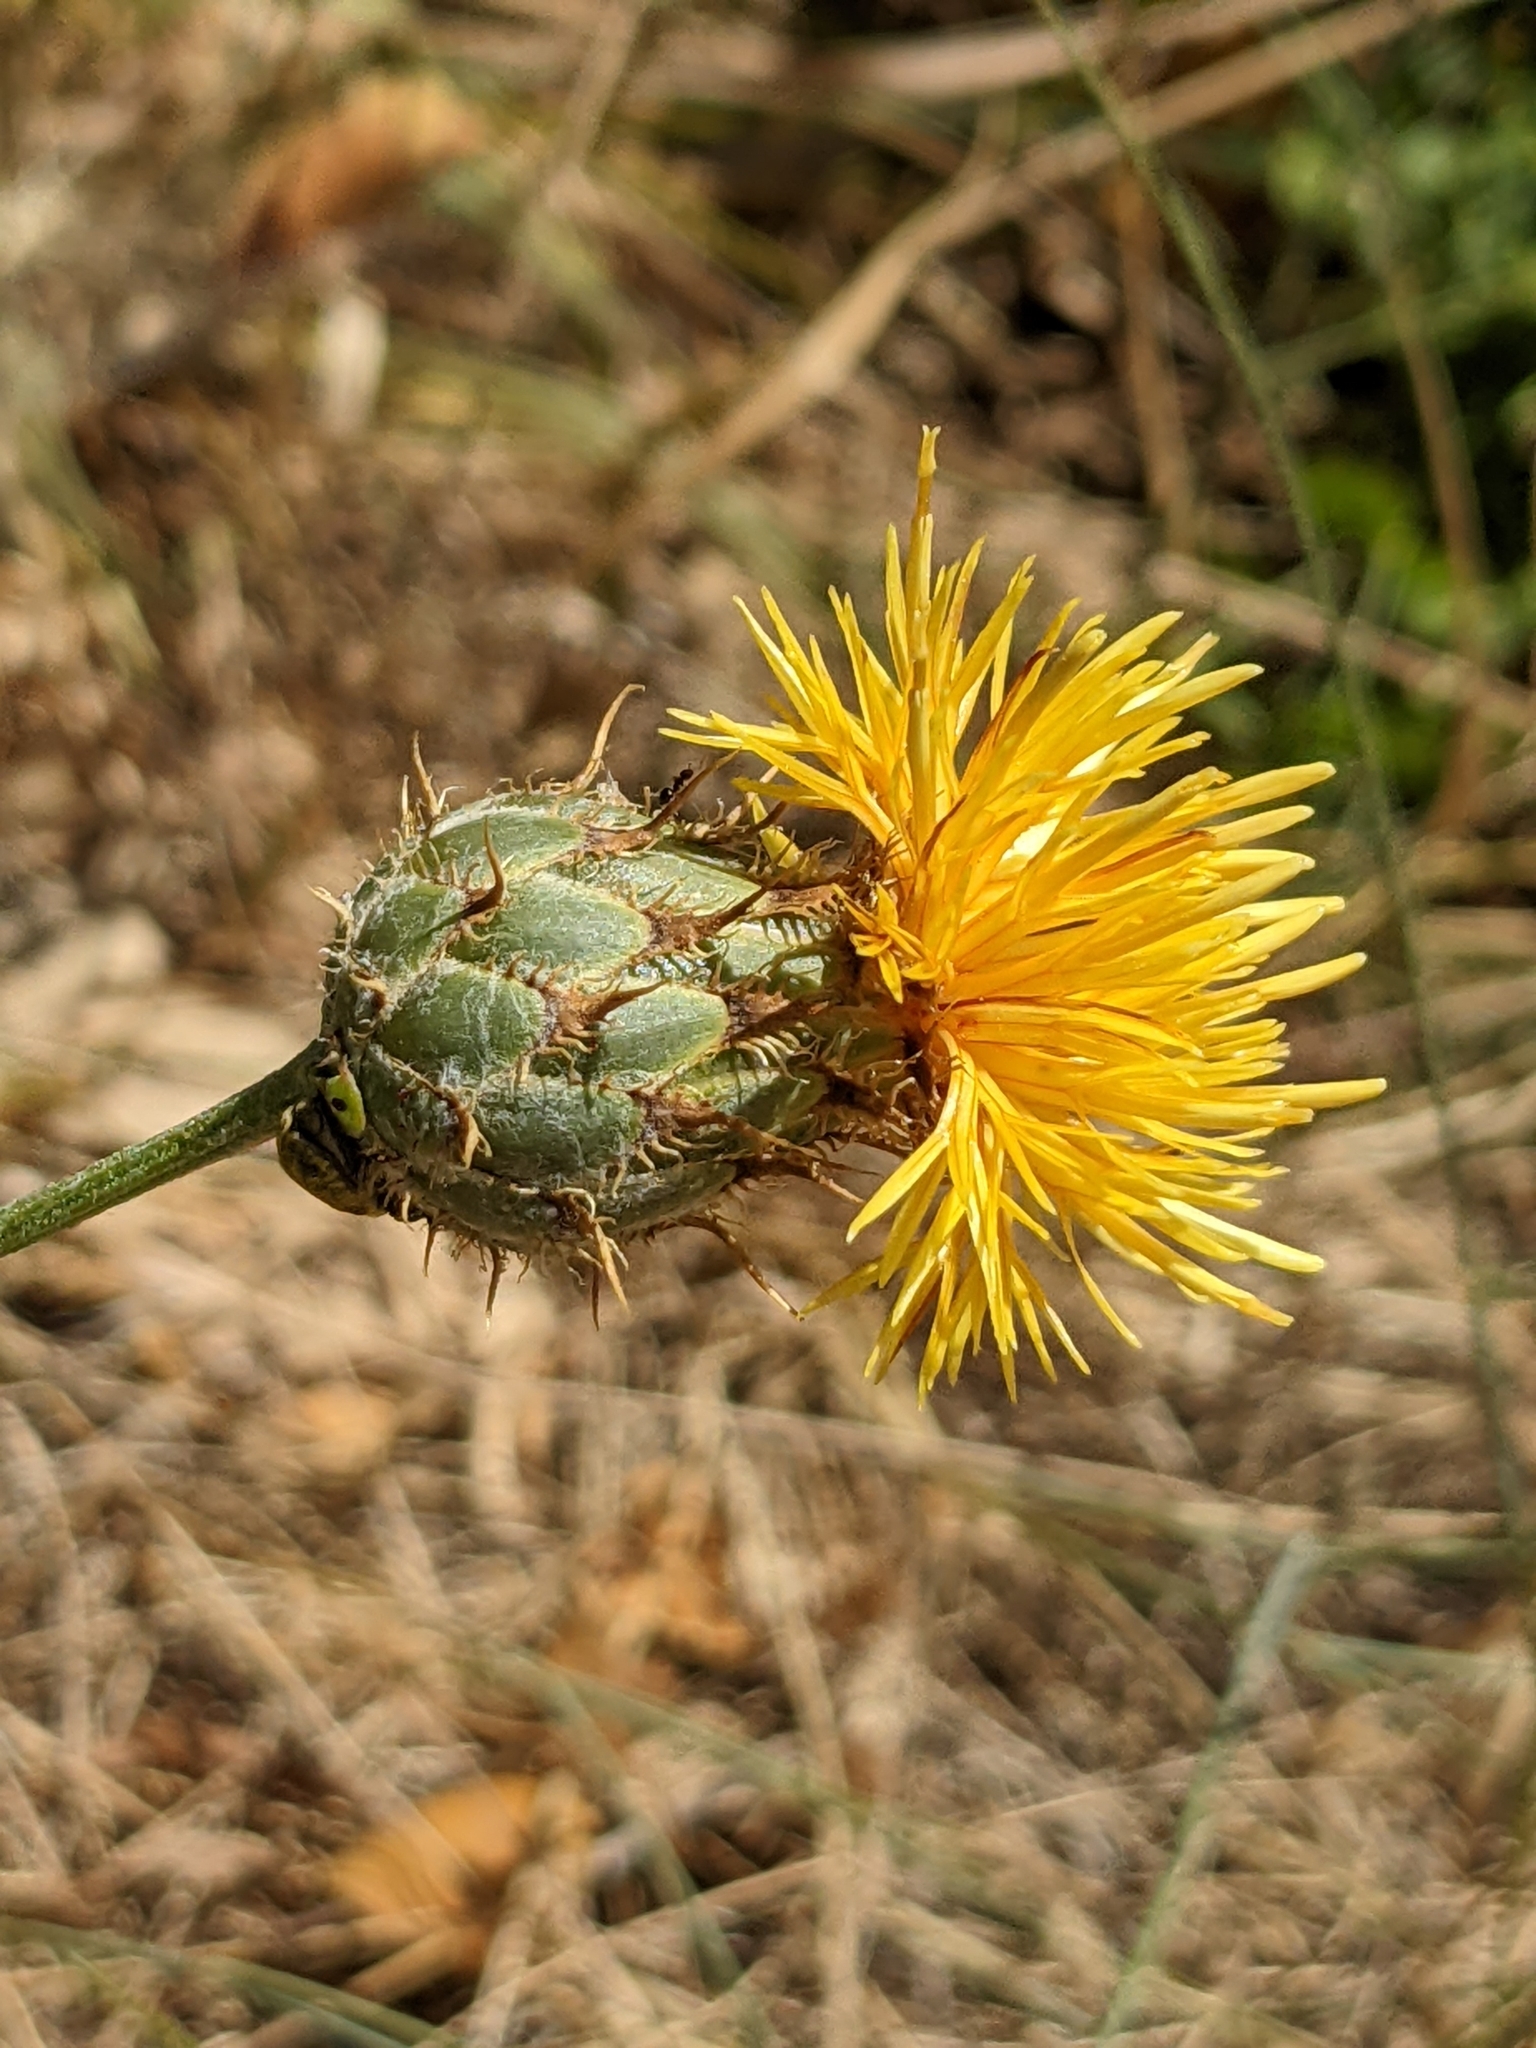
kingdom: Plantae
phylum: Tracheophyta
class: Magnoliopsida
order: Asterales
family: Asteraceae
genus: Centaurea
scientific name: Centaurea collina
